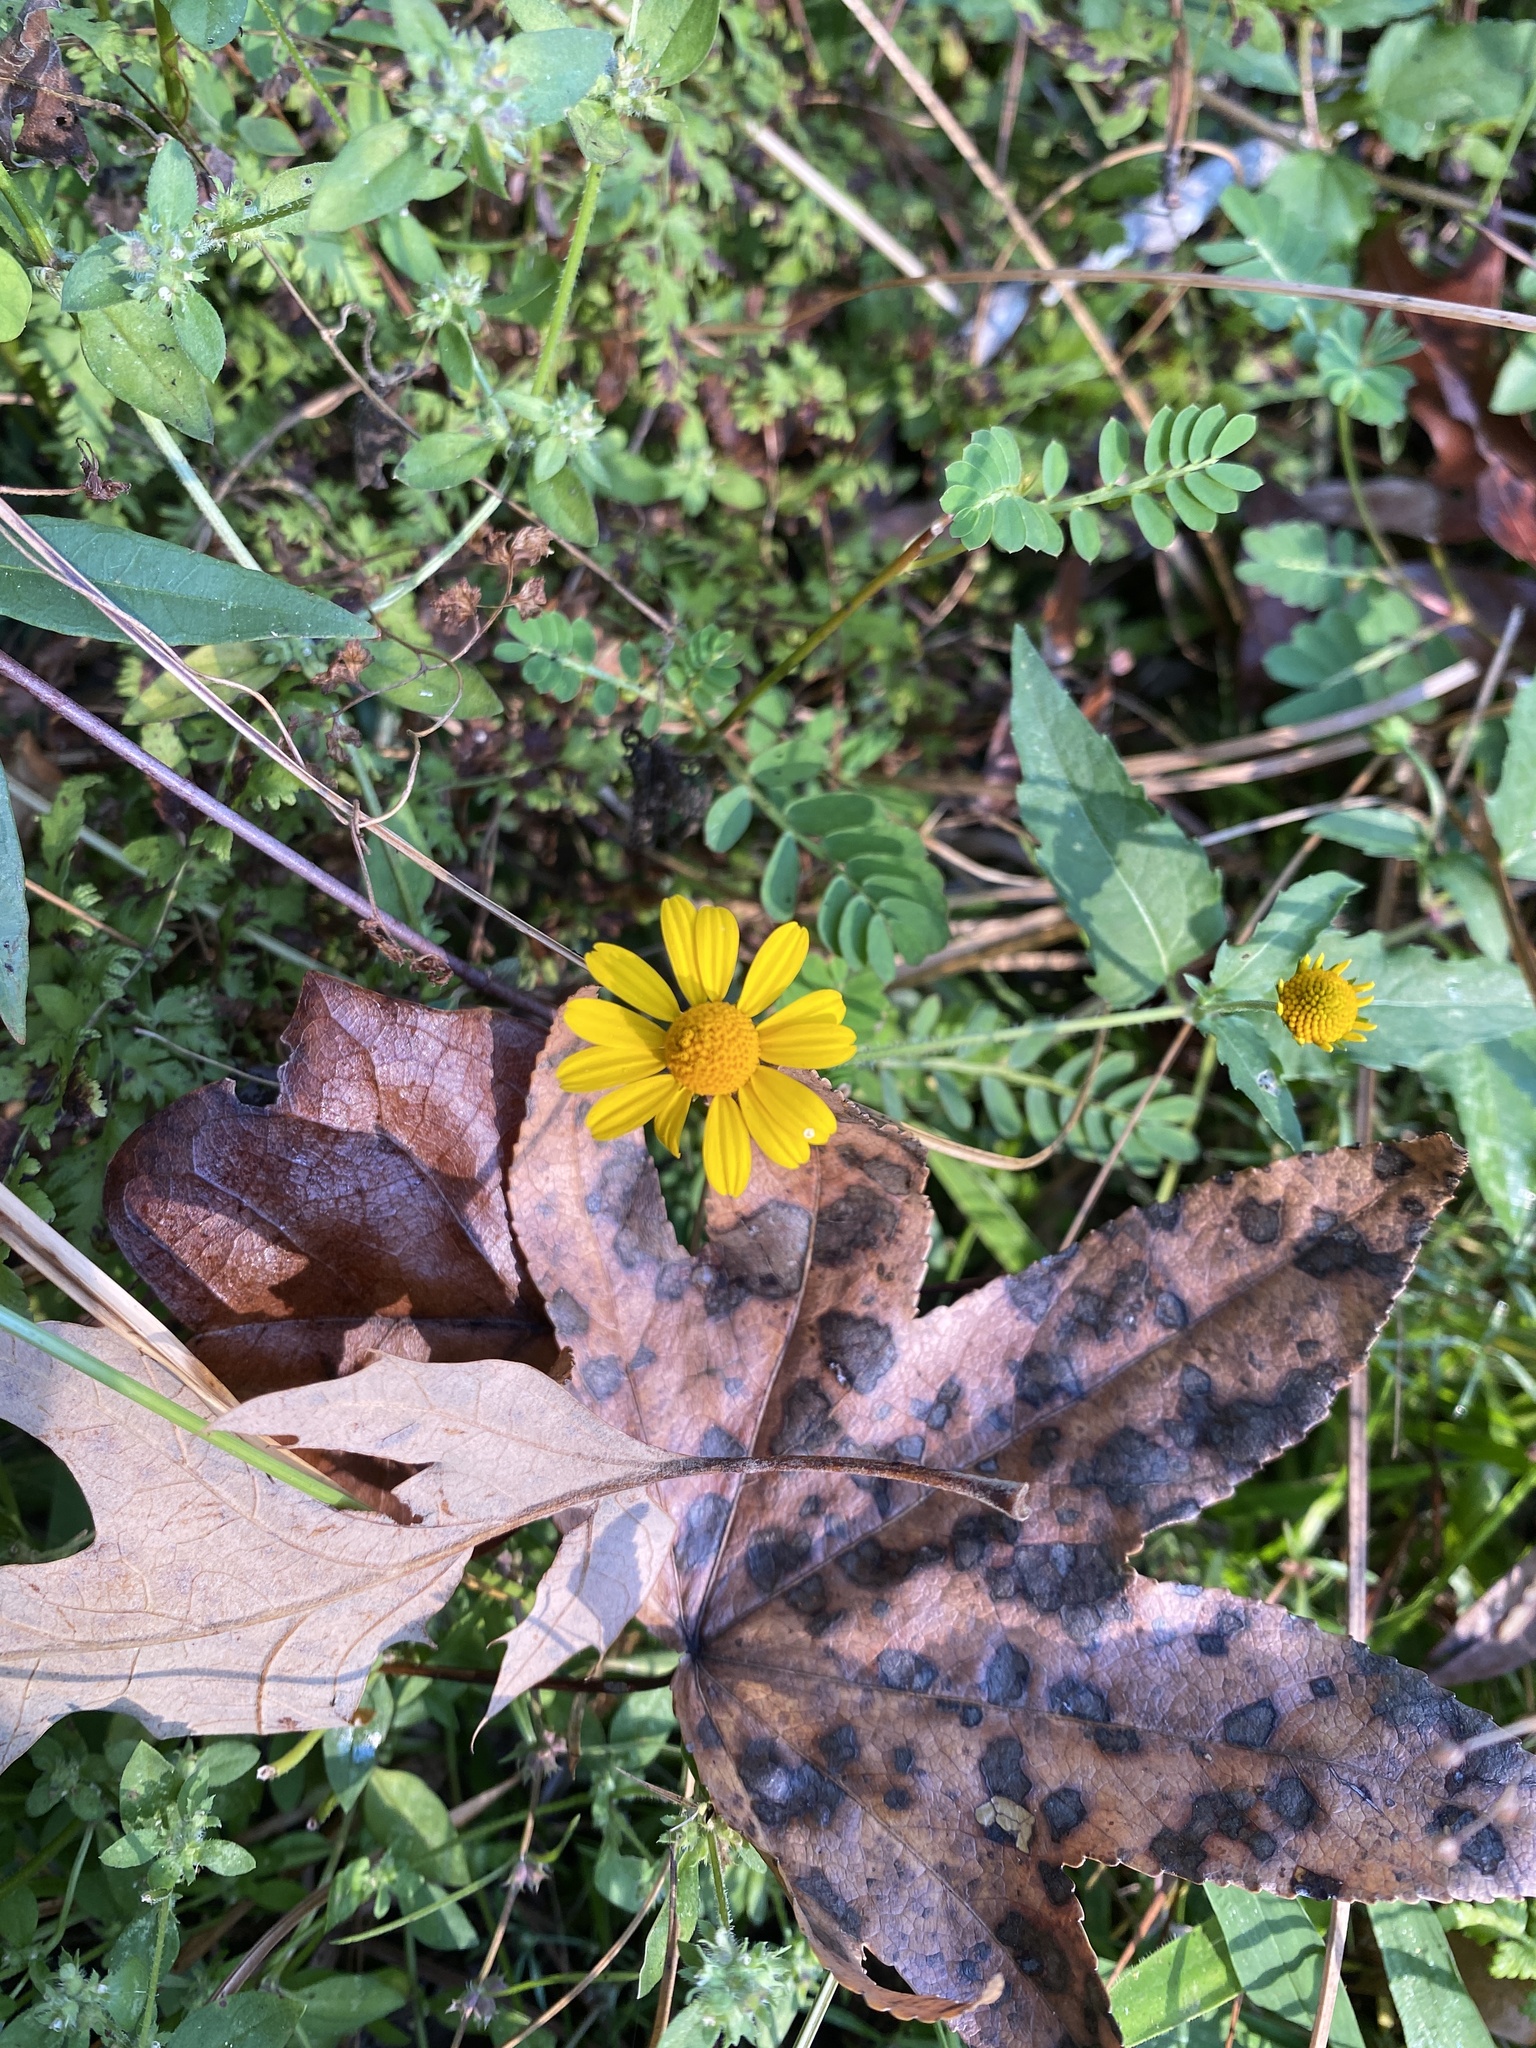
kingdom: Plantae
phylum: Tracheophyta
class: Magnoliopsida
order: Asterales
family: Asteraceae
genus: Acmella
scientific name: Acmella repens
